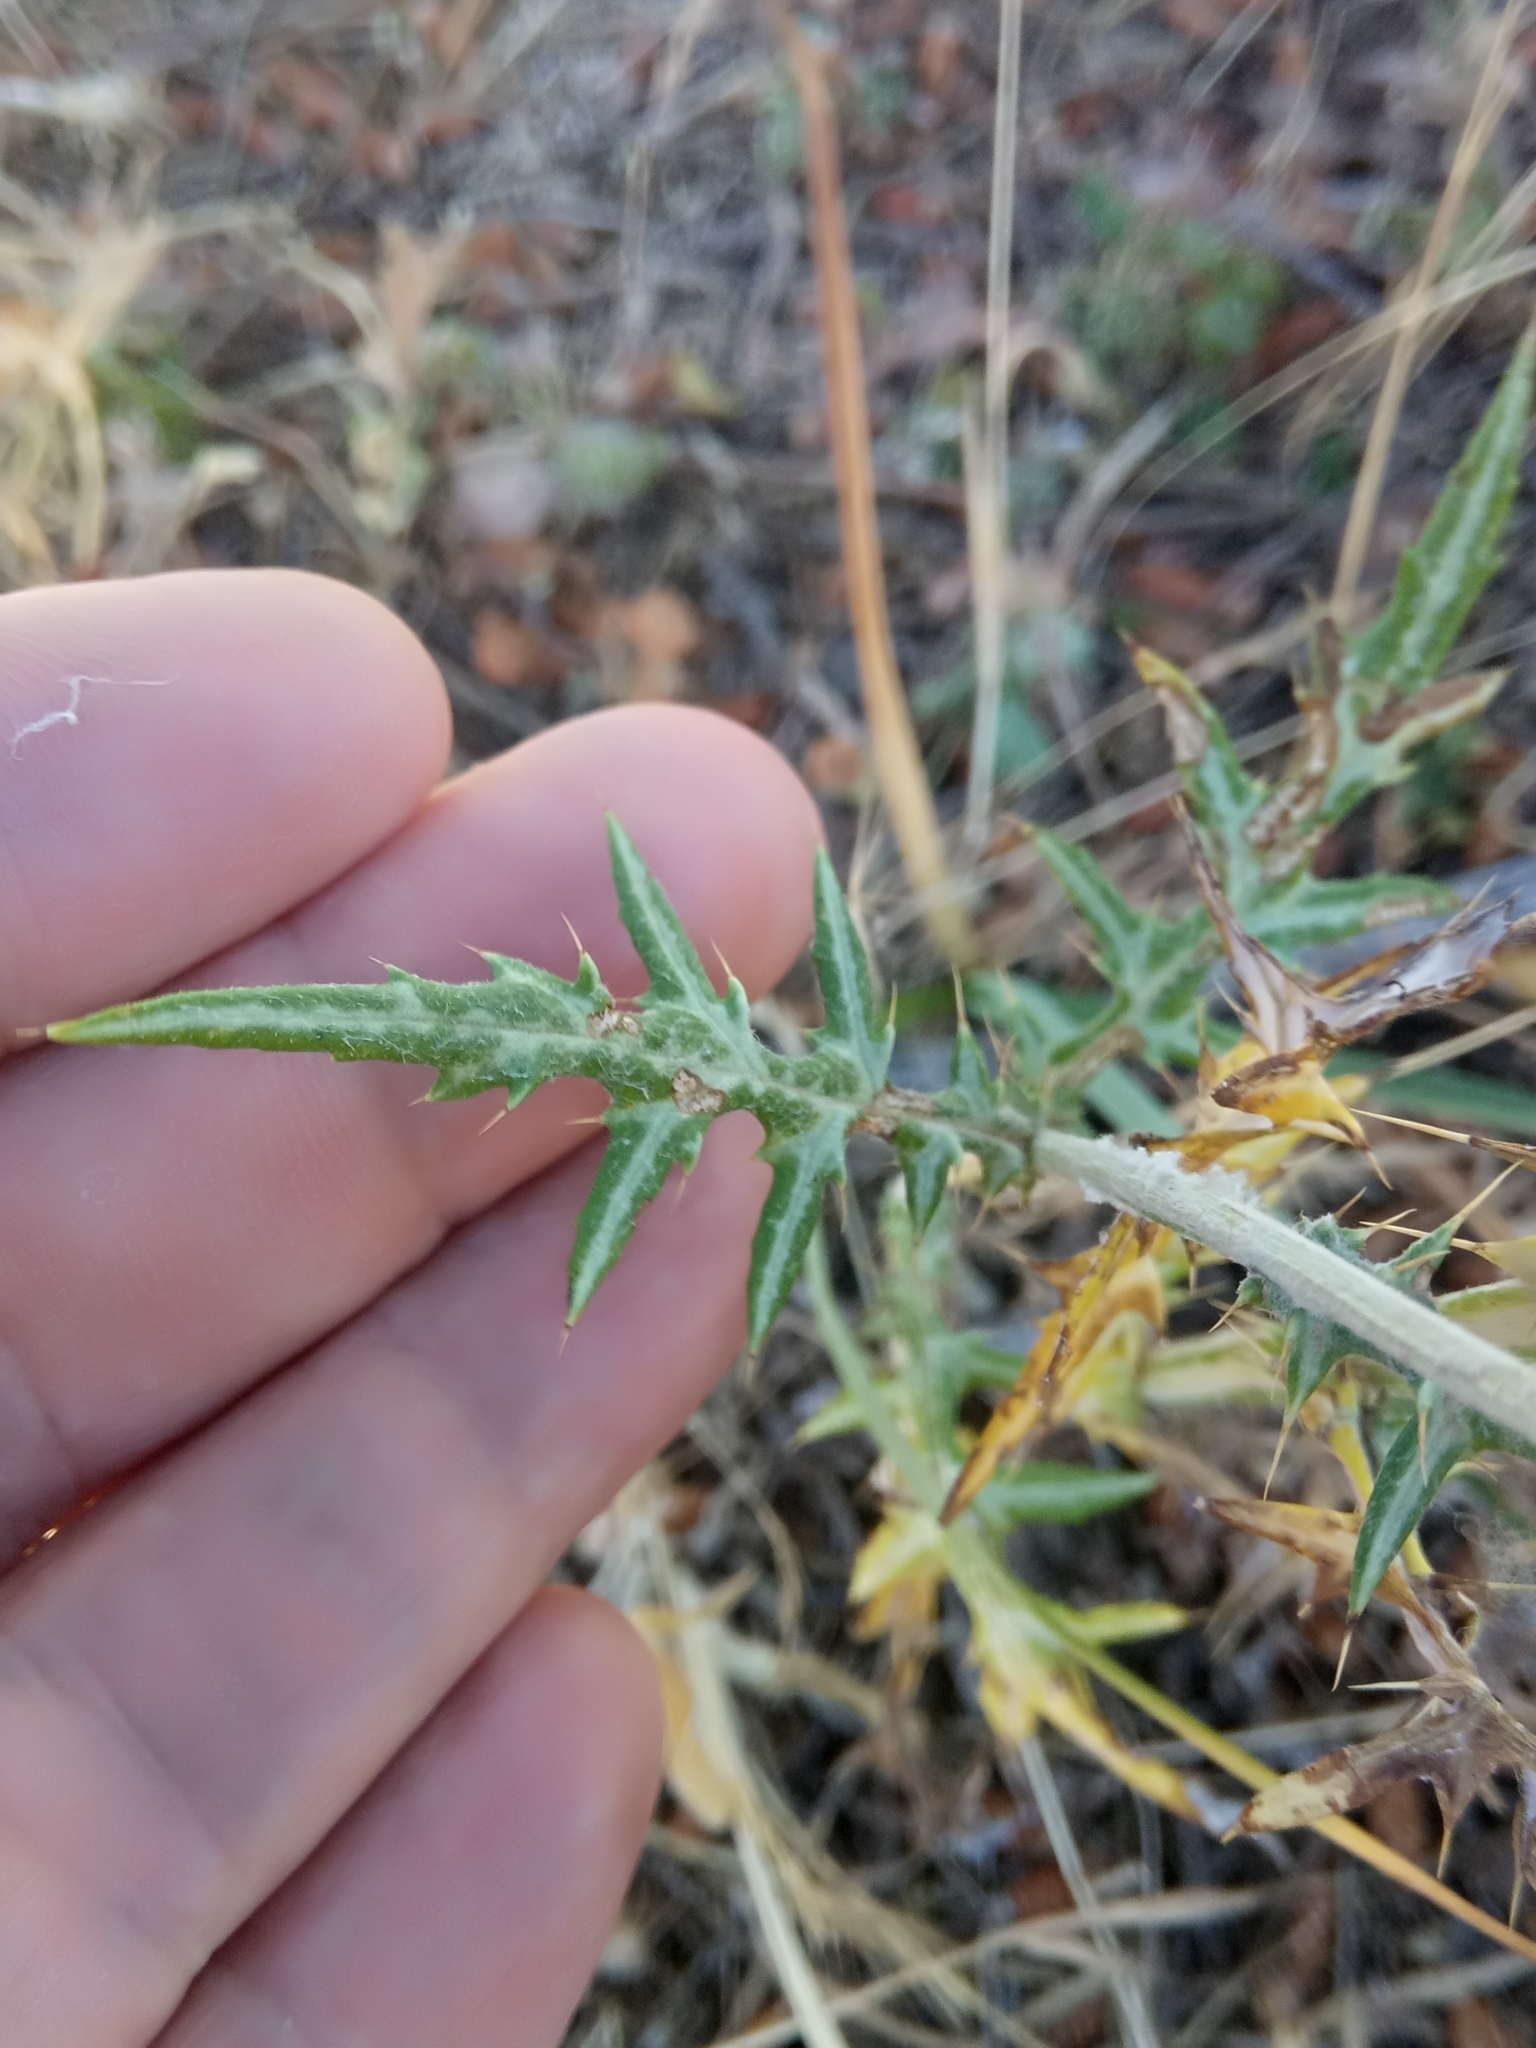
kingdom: Plantae
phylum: Tracheophyta
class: Magnoliopsida
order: Asterales
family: Asteraceae
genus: Galactites
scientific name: Galactites tomentosa
